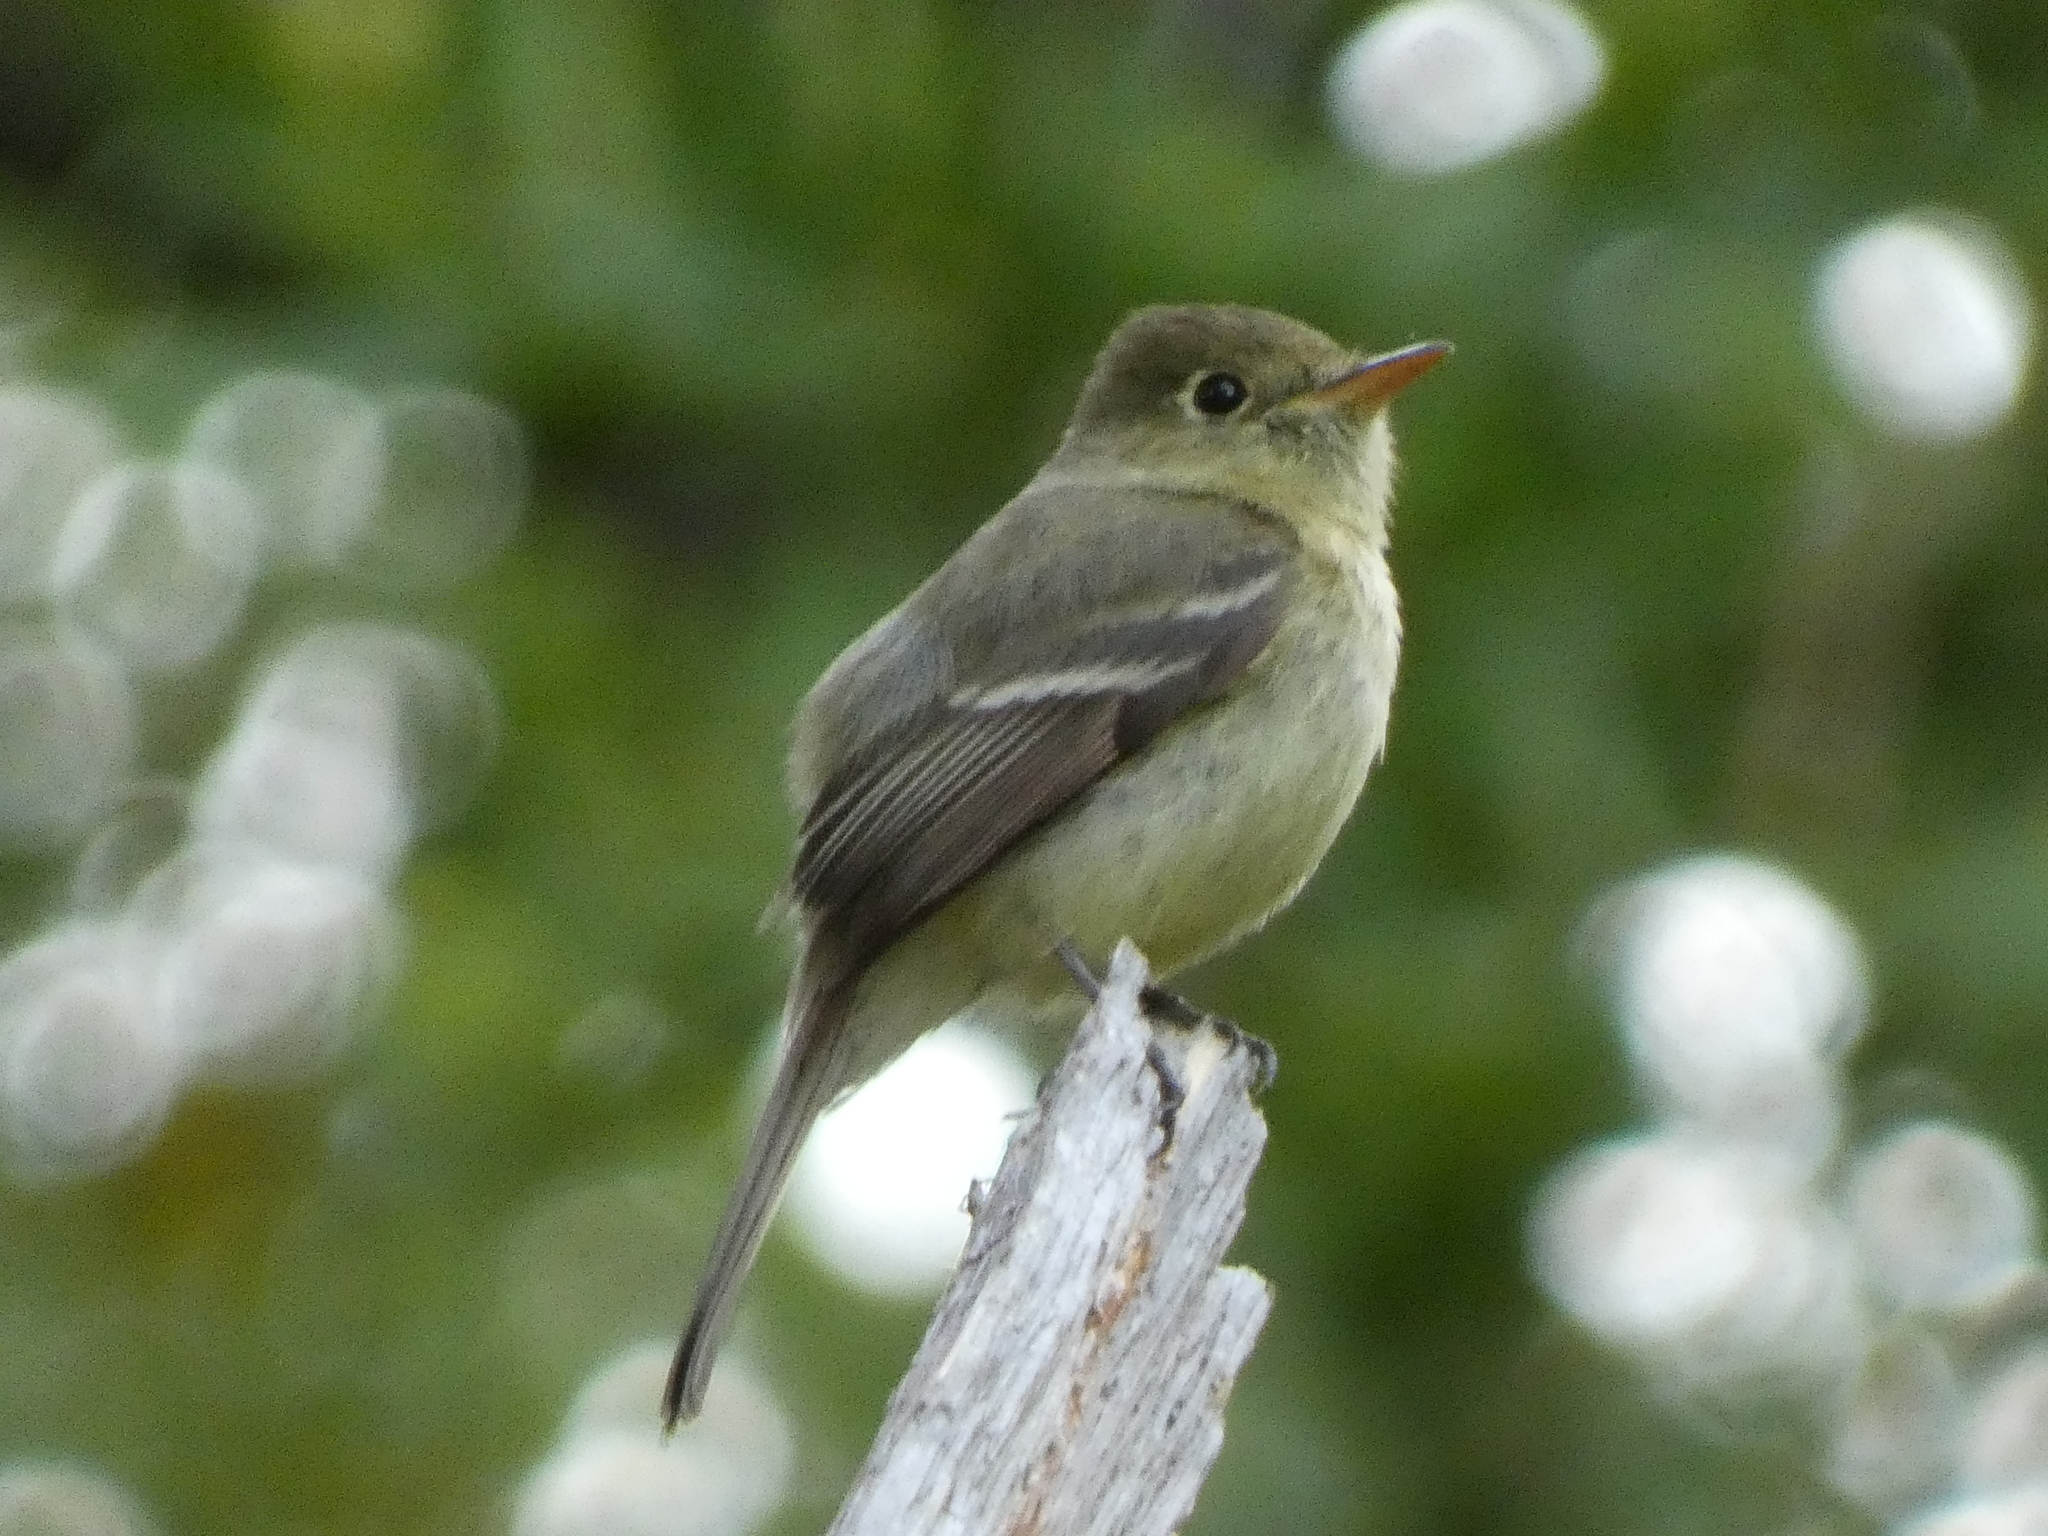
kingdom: Animalia
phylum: Chordata
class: Aves
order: Passeriformes
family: Tyrannidae
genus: Empidonax
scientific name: Empidonax difficilis
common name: Pacific-slope flycatcher
